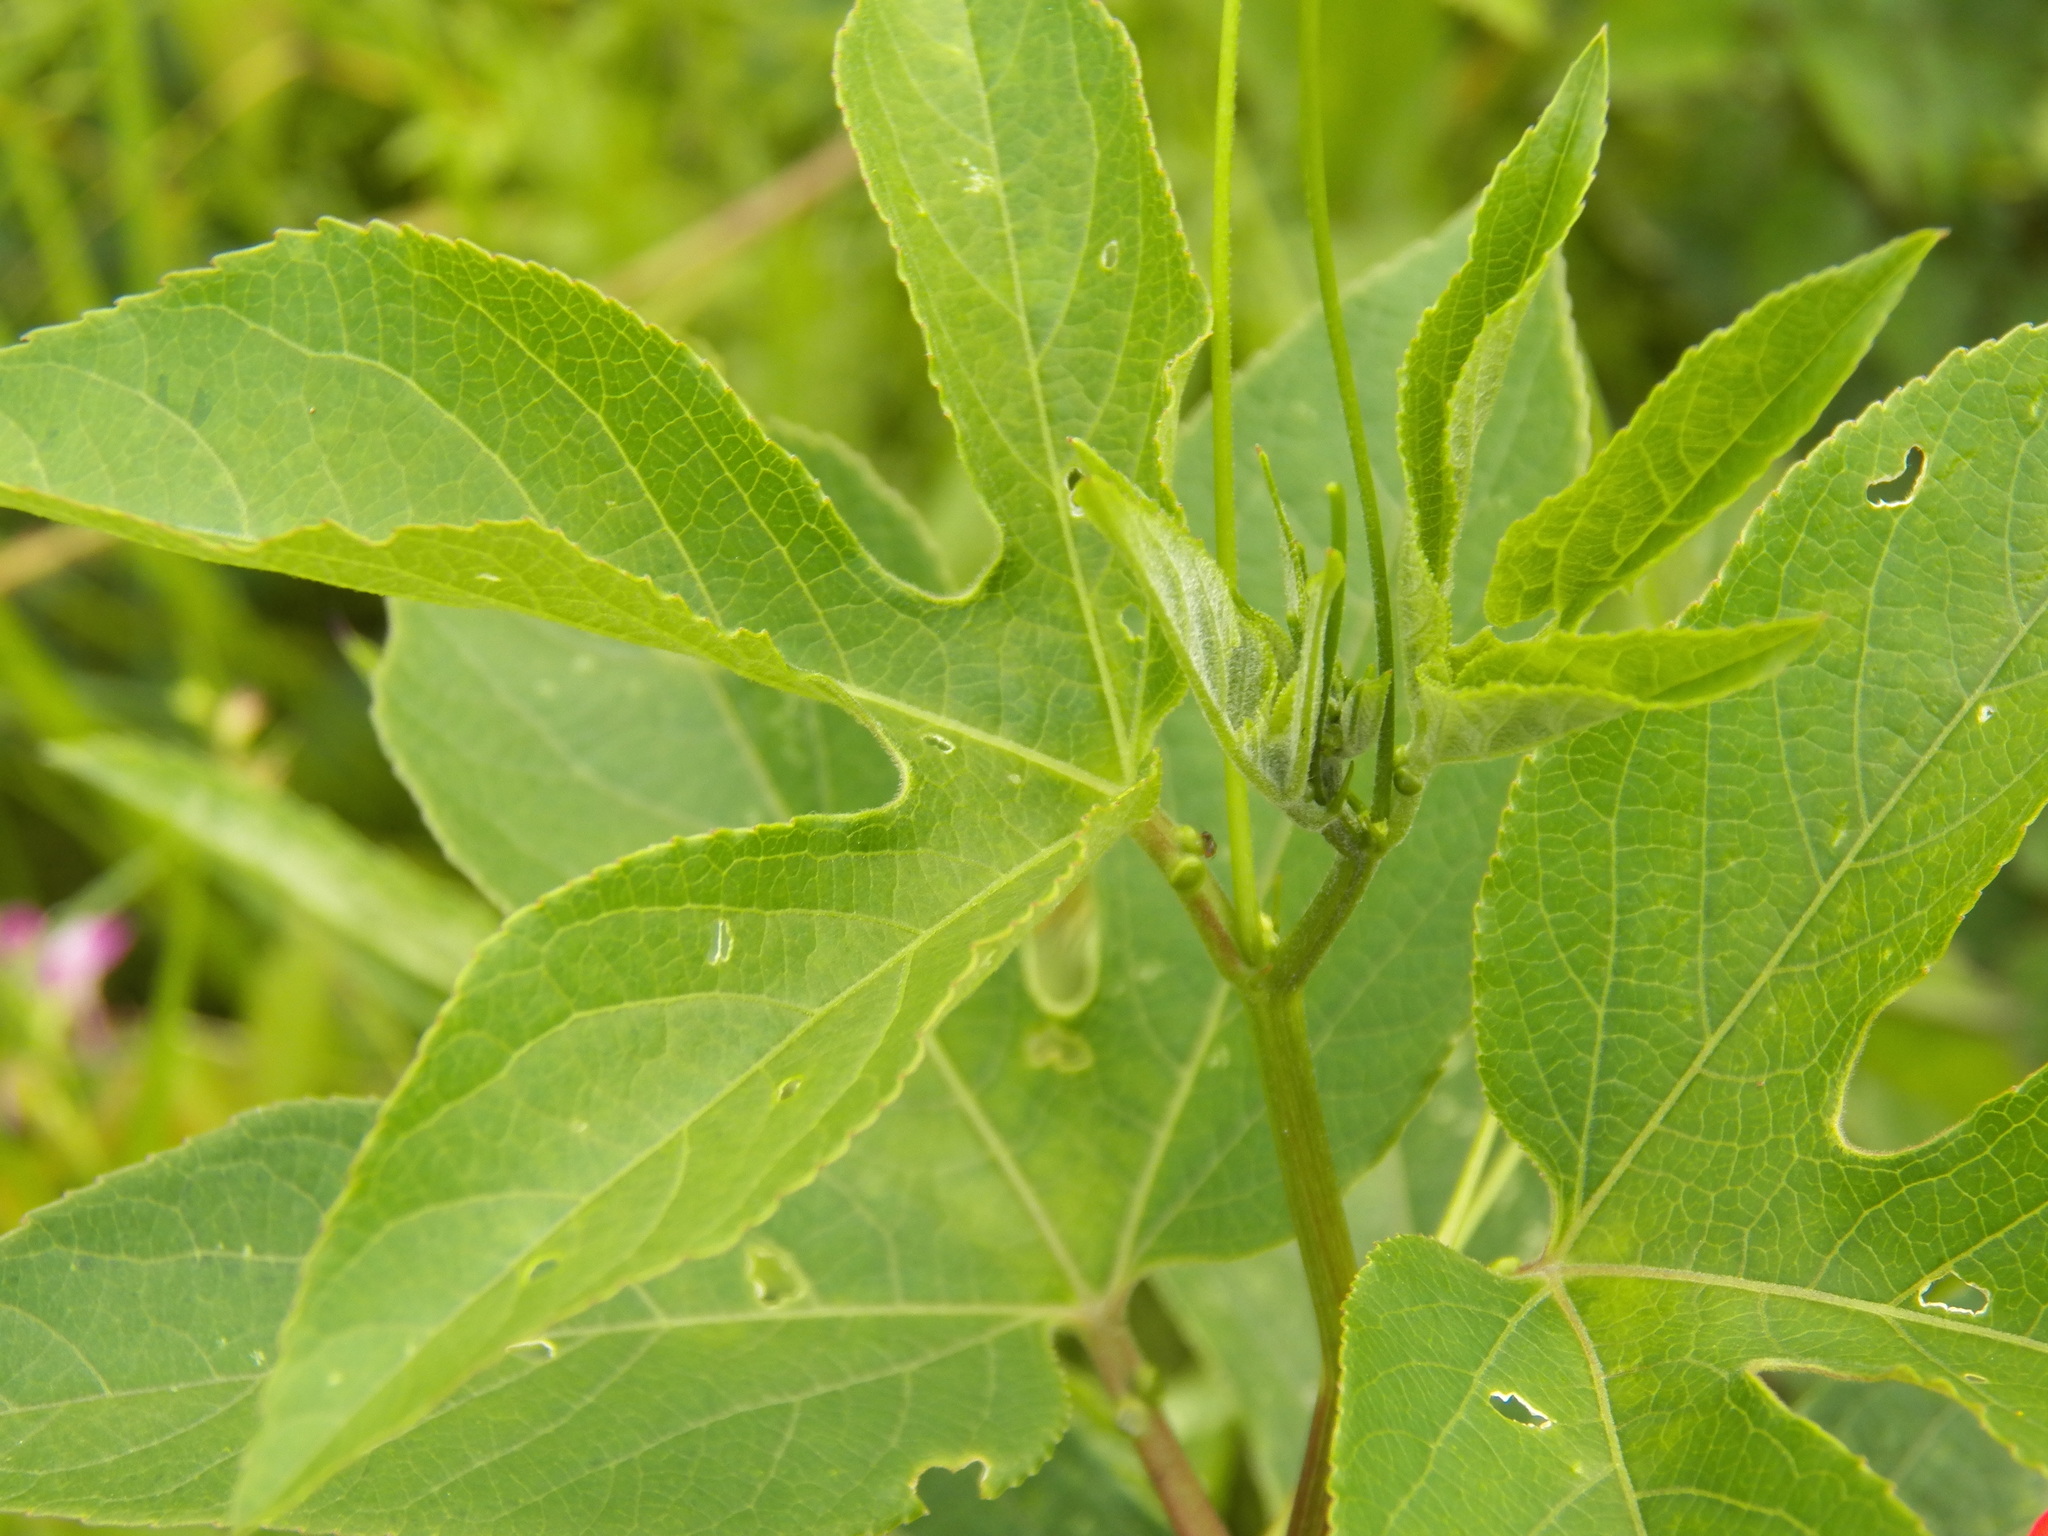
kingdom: Plantae
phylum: Tracheophyta
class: Magnoliopsida
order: Malpighiales
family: Passifloraceae
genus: Passiflora
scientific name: Passiflora incarnata
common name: Apricot-vine
